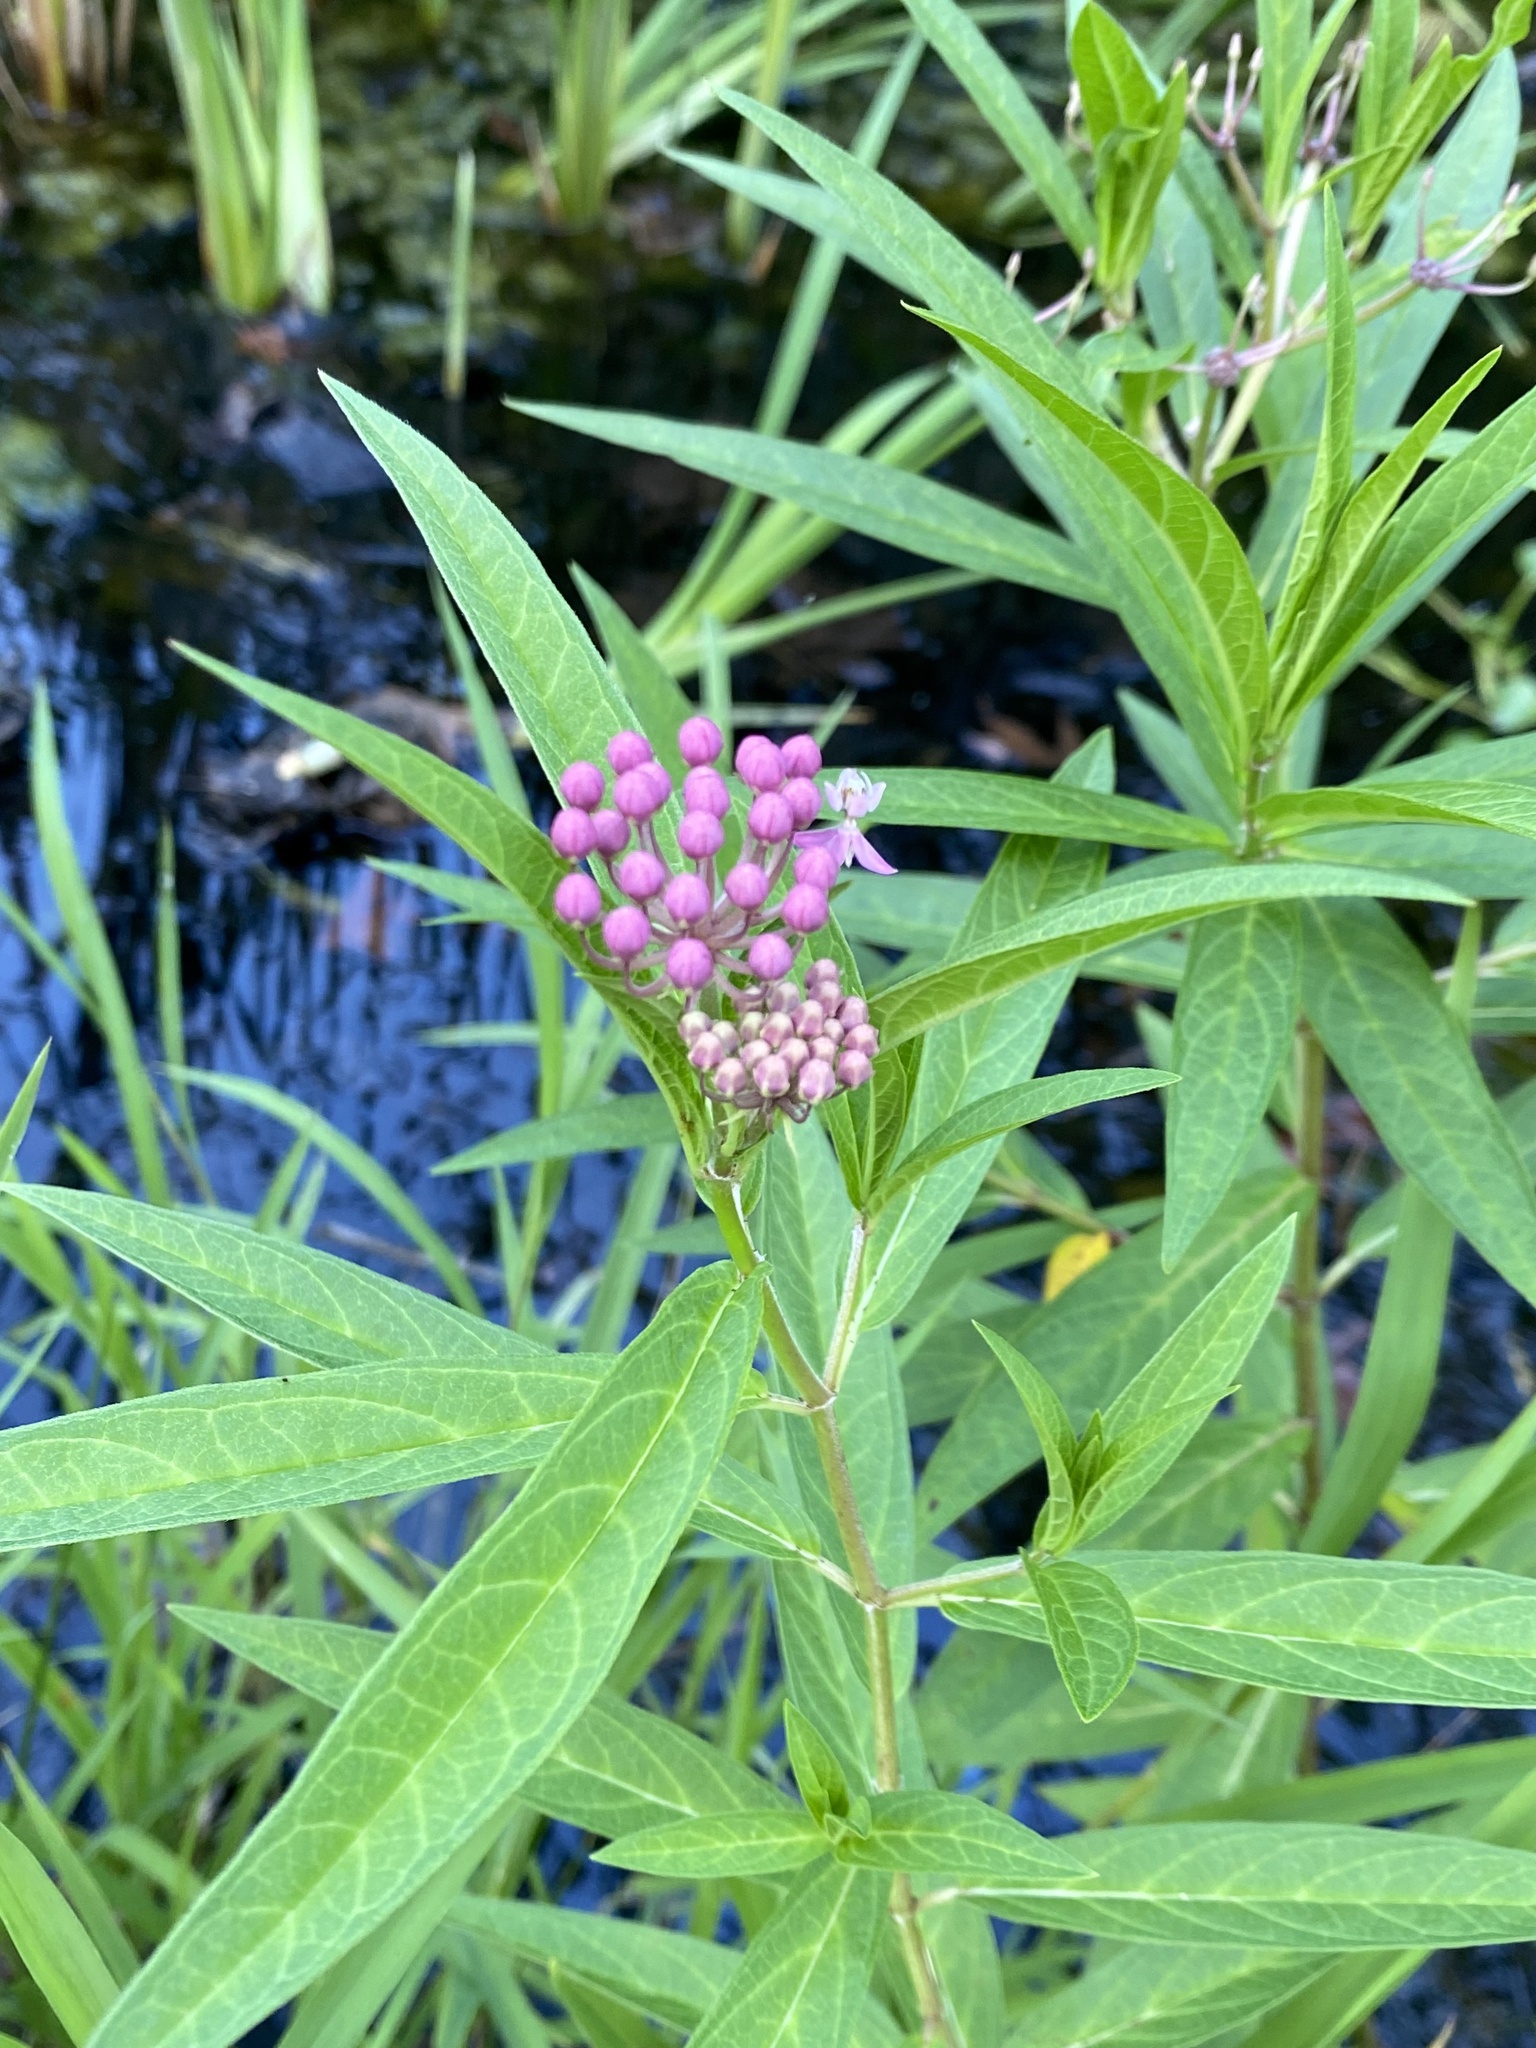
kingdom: Plantae
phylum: Tracheophyta
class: Magnoliopsida
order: Gentianales
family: Apocynaceae
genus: Asclepias
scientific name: Asclepias incarnata
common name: Swamp milkweed
